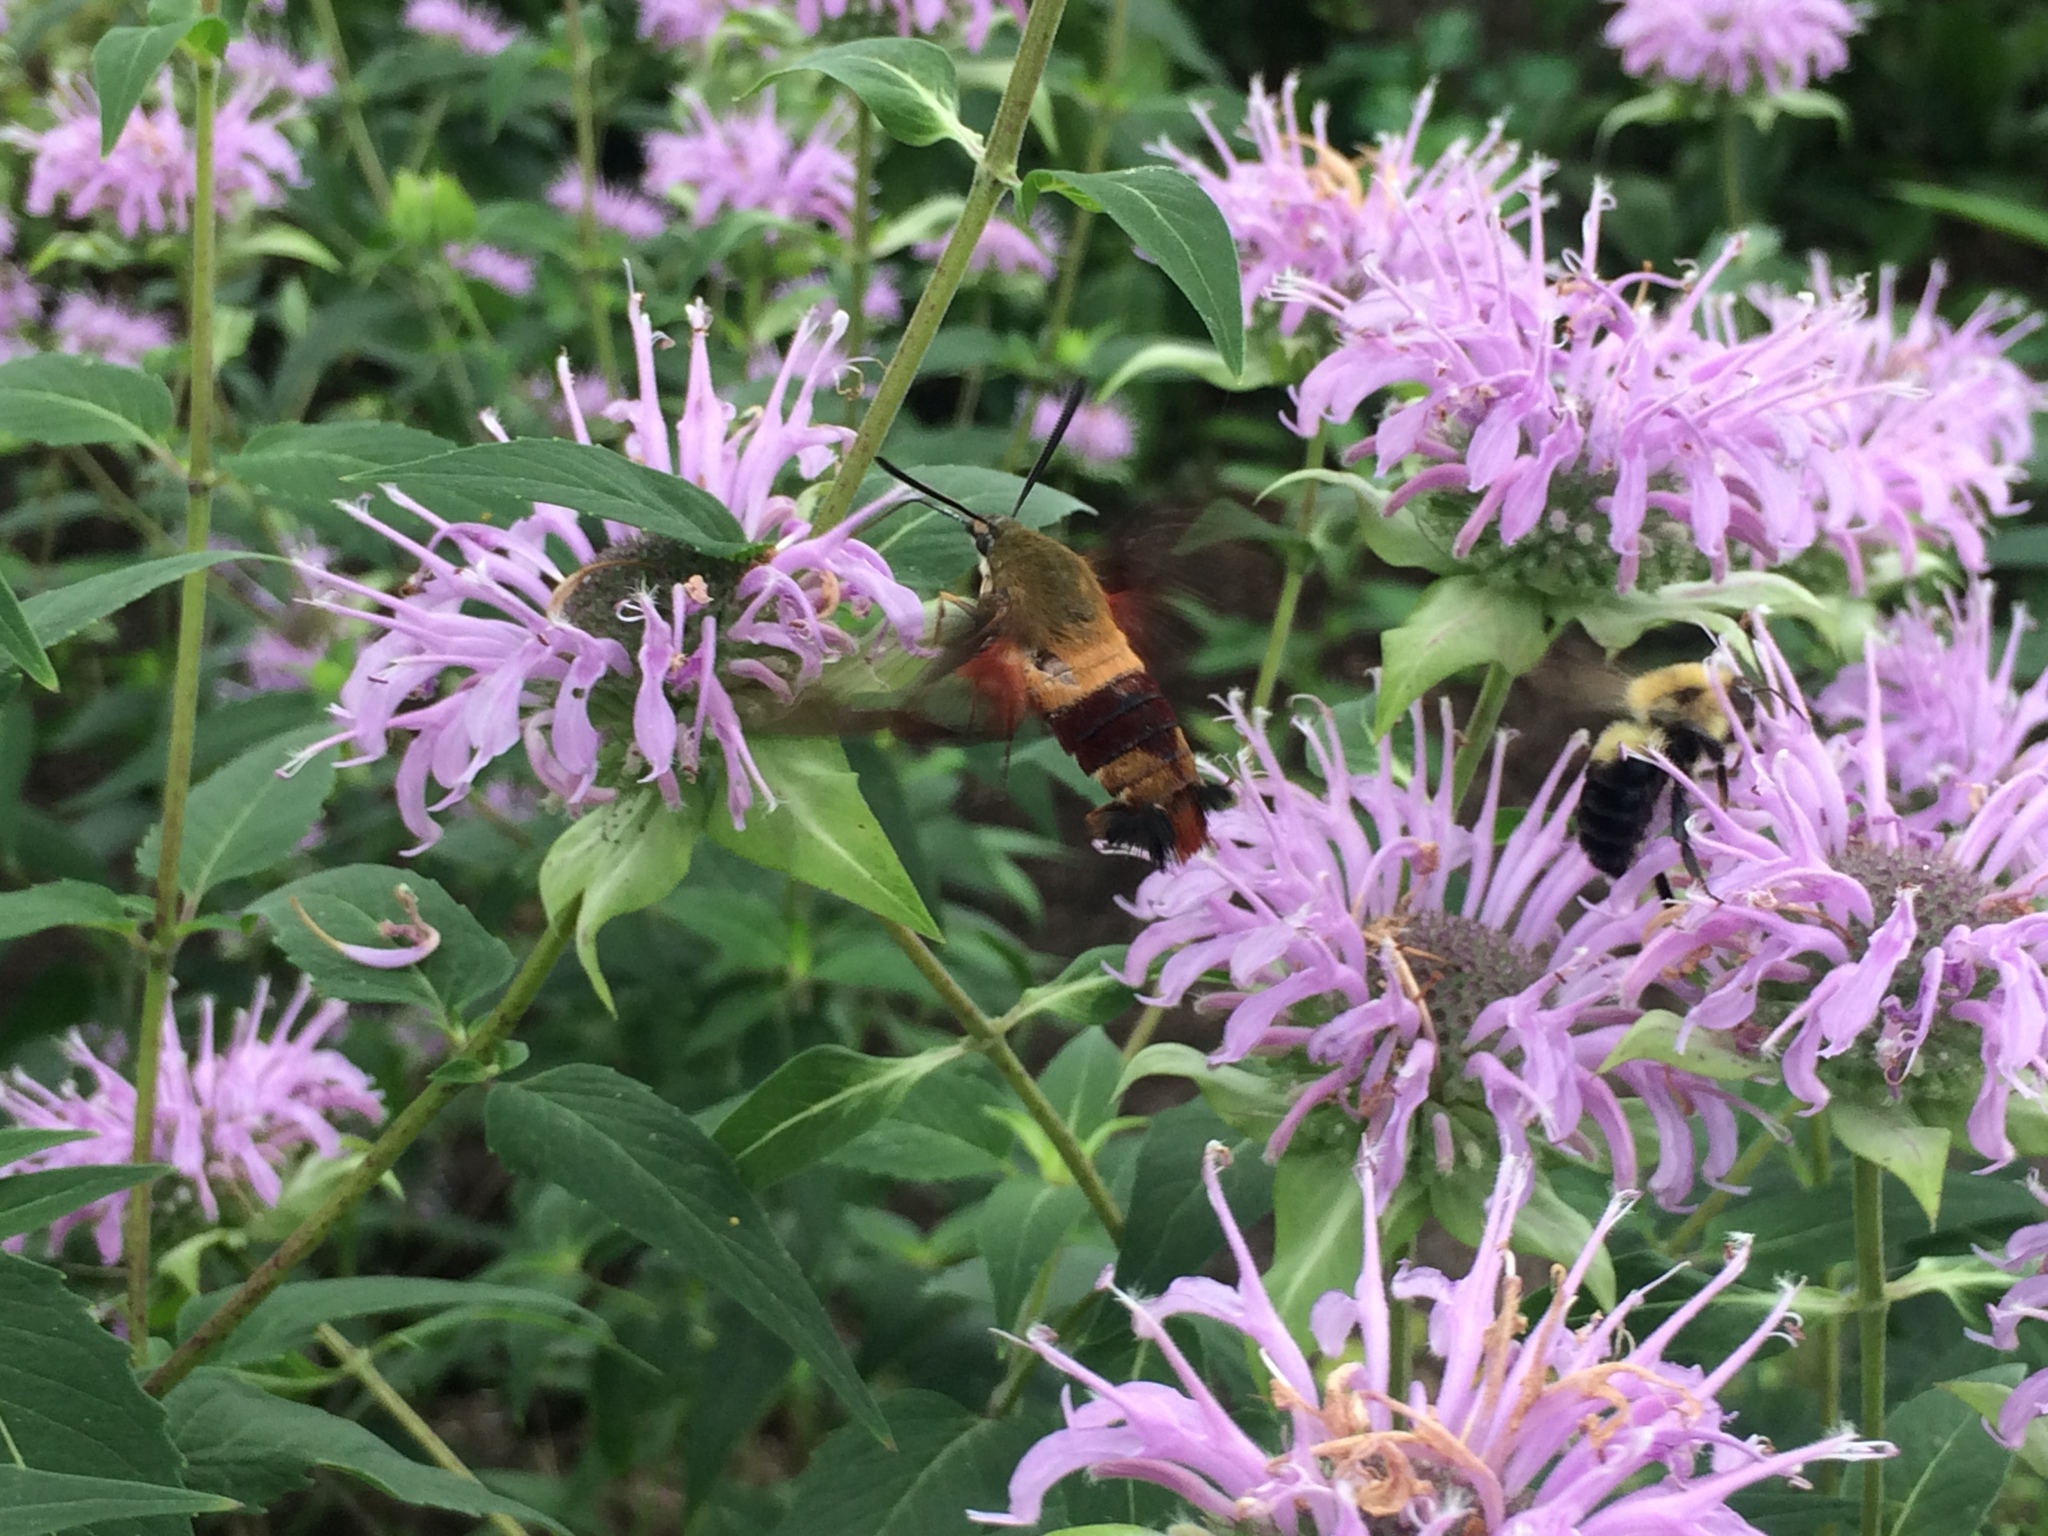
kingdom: Animalia
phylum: Arthropoda
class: Insecta
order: Lepidoptera
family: Sphingidae
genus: Hemaris
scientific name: Hemaris thysbe
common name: Common clear-wing
